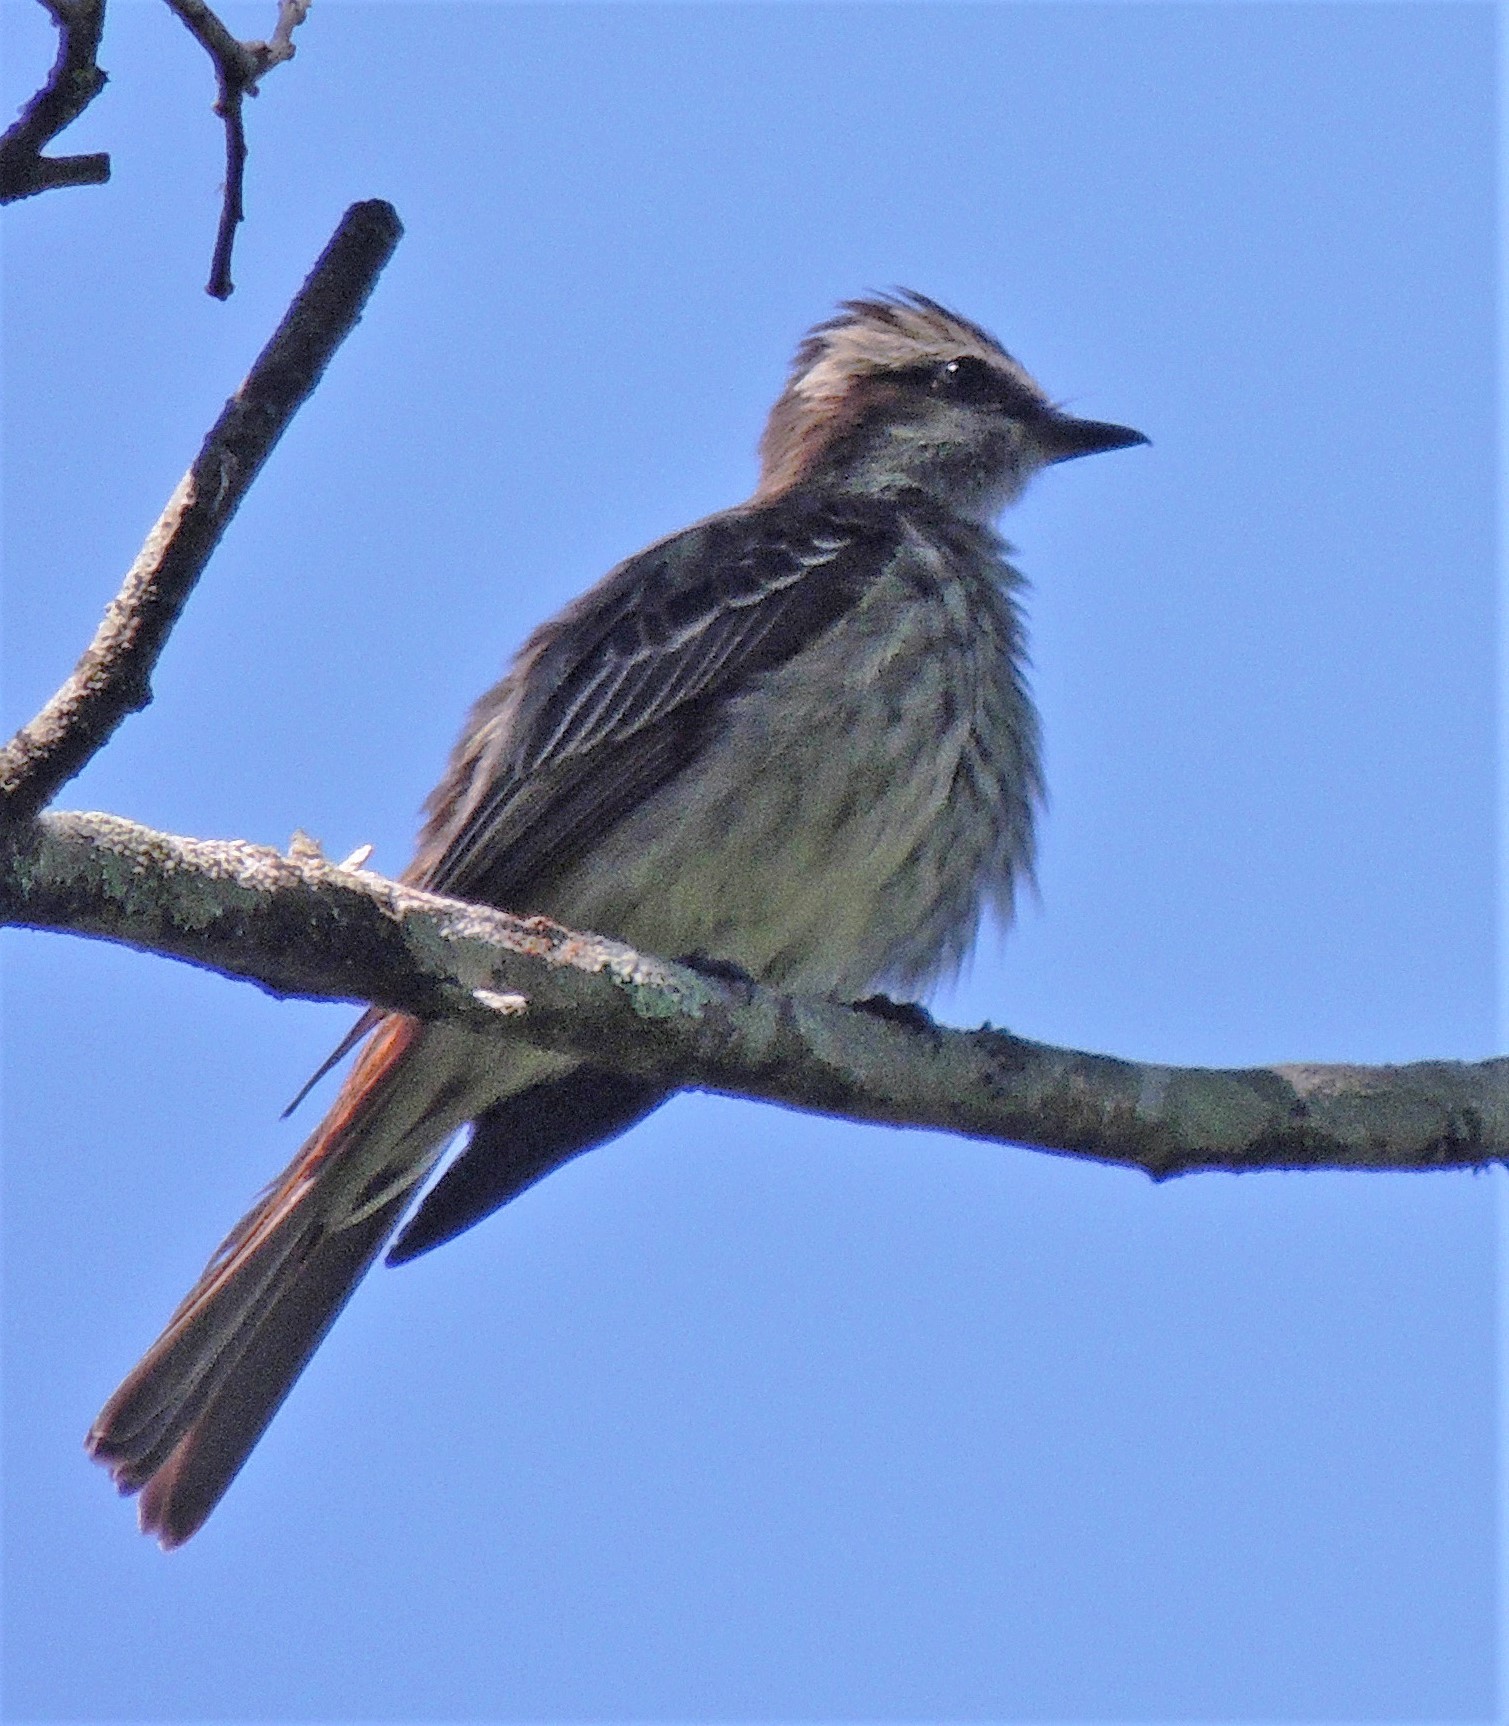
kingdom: Animalia
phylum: Chordata
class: Aves
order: Passeriformes
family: Tyrannidae
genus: Empidonomus
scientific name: Empidonomus varius
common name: Variegated flycatcher
